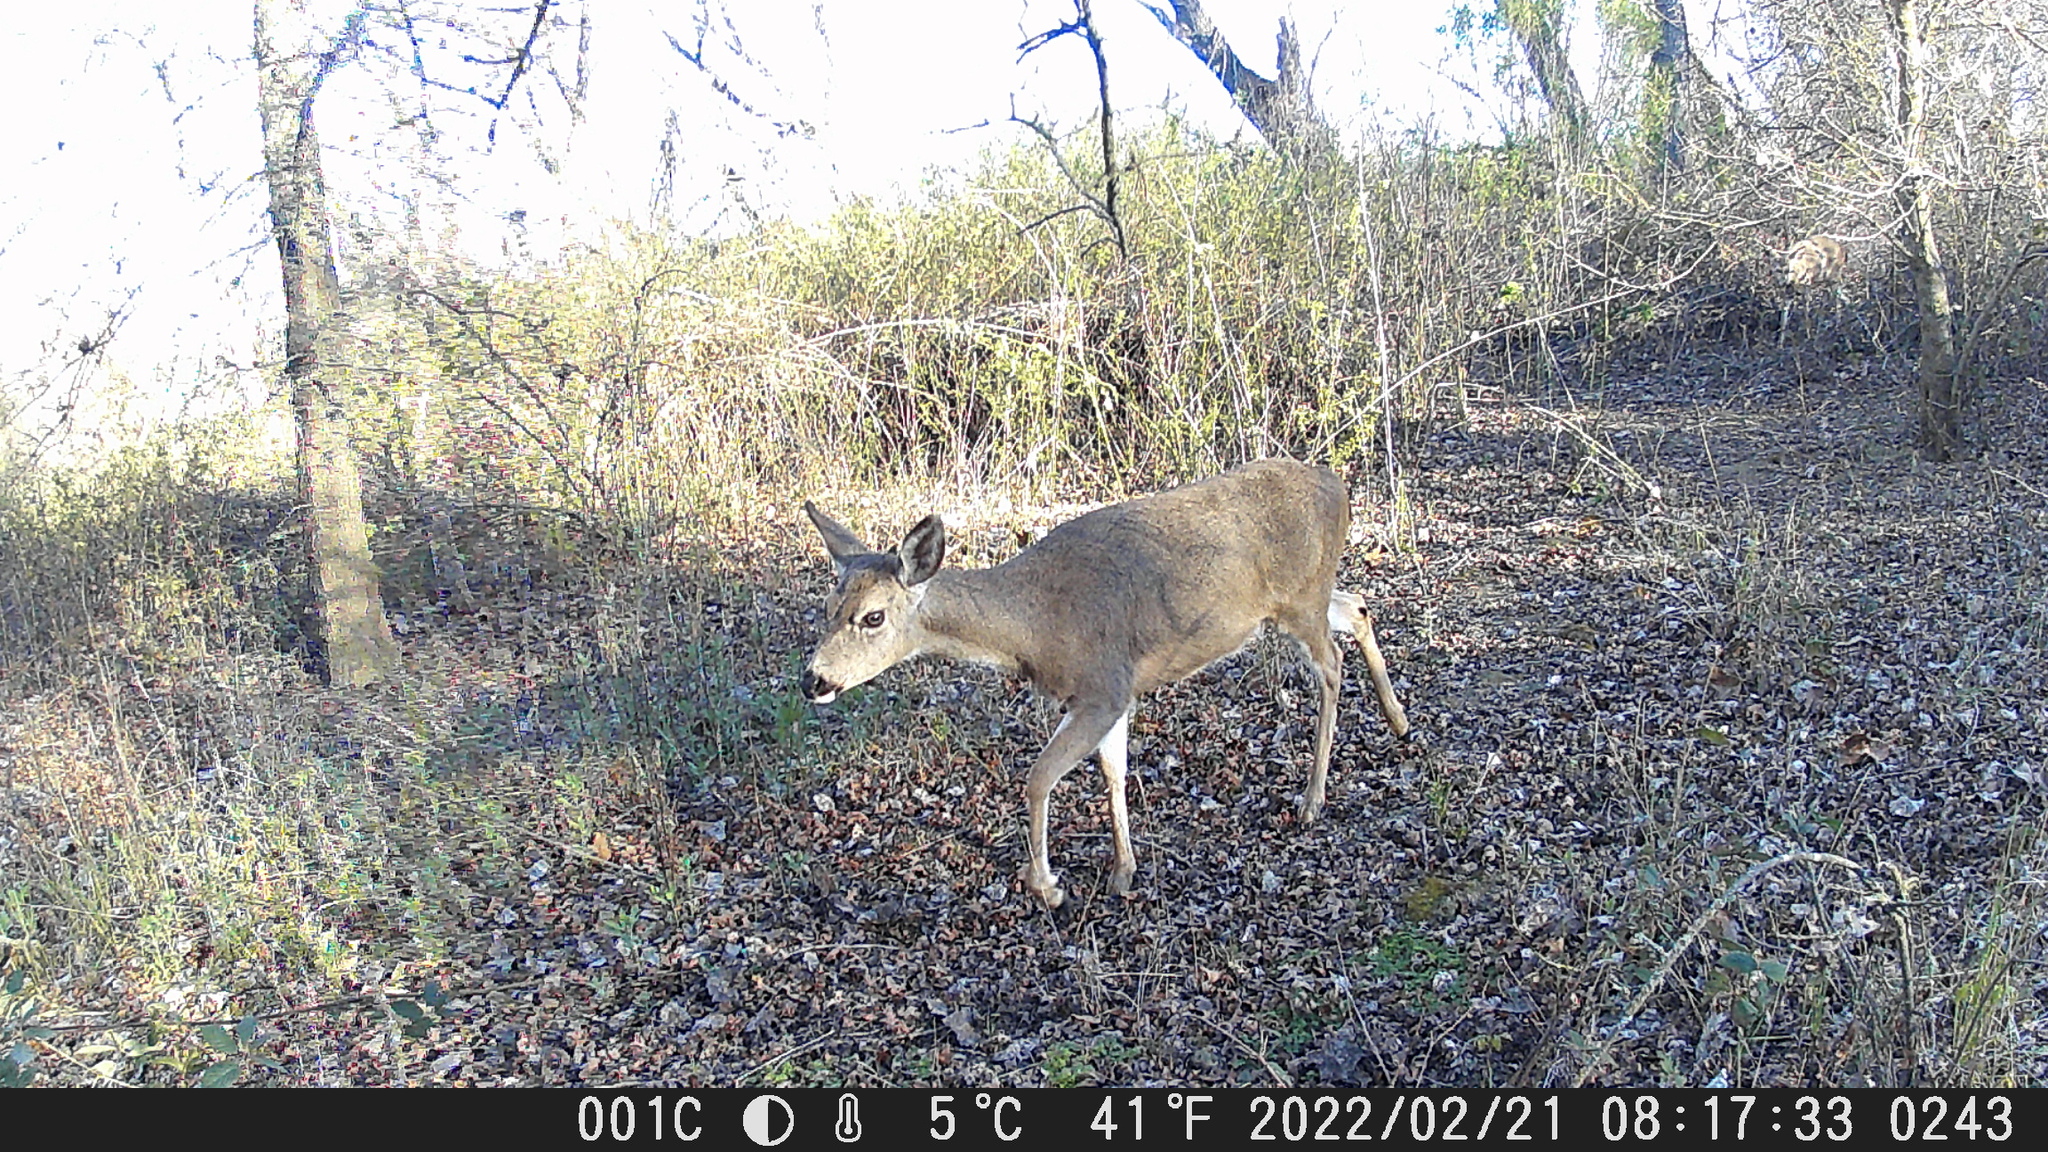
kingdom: Animalia
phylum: Chordata
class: Mammalia
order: Artiodactyla
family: Cervidae
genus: Odocoileus
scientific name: Odocoileus hemionus
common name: Mule deer
